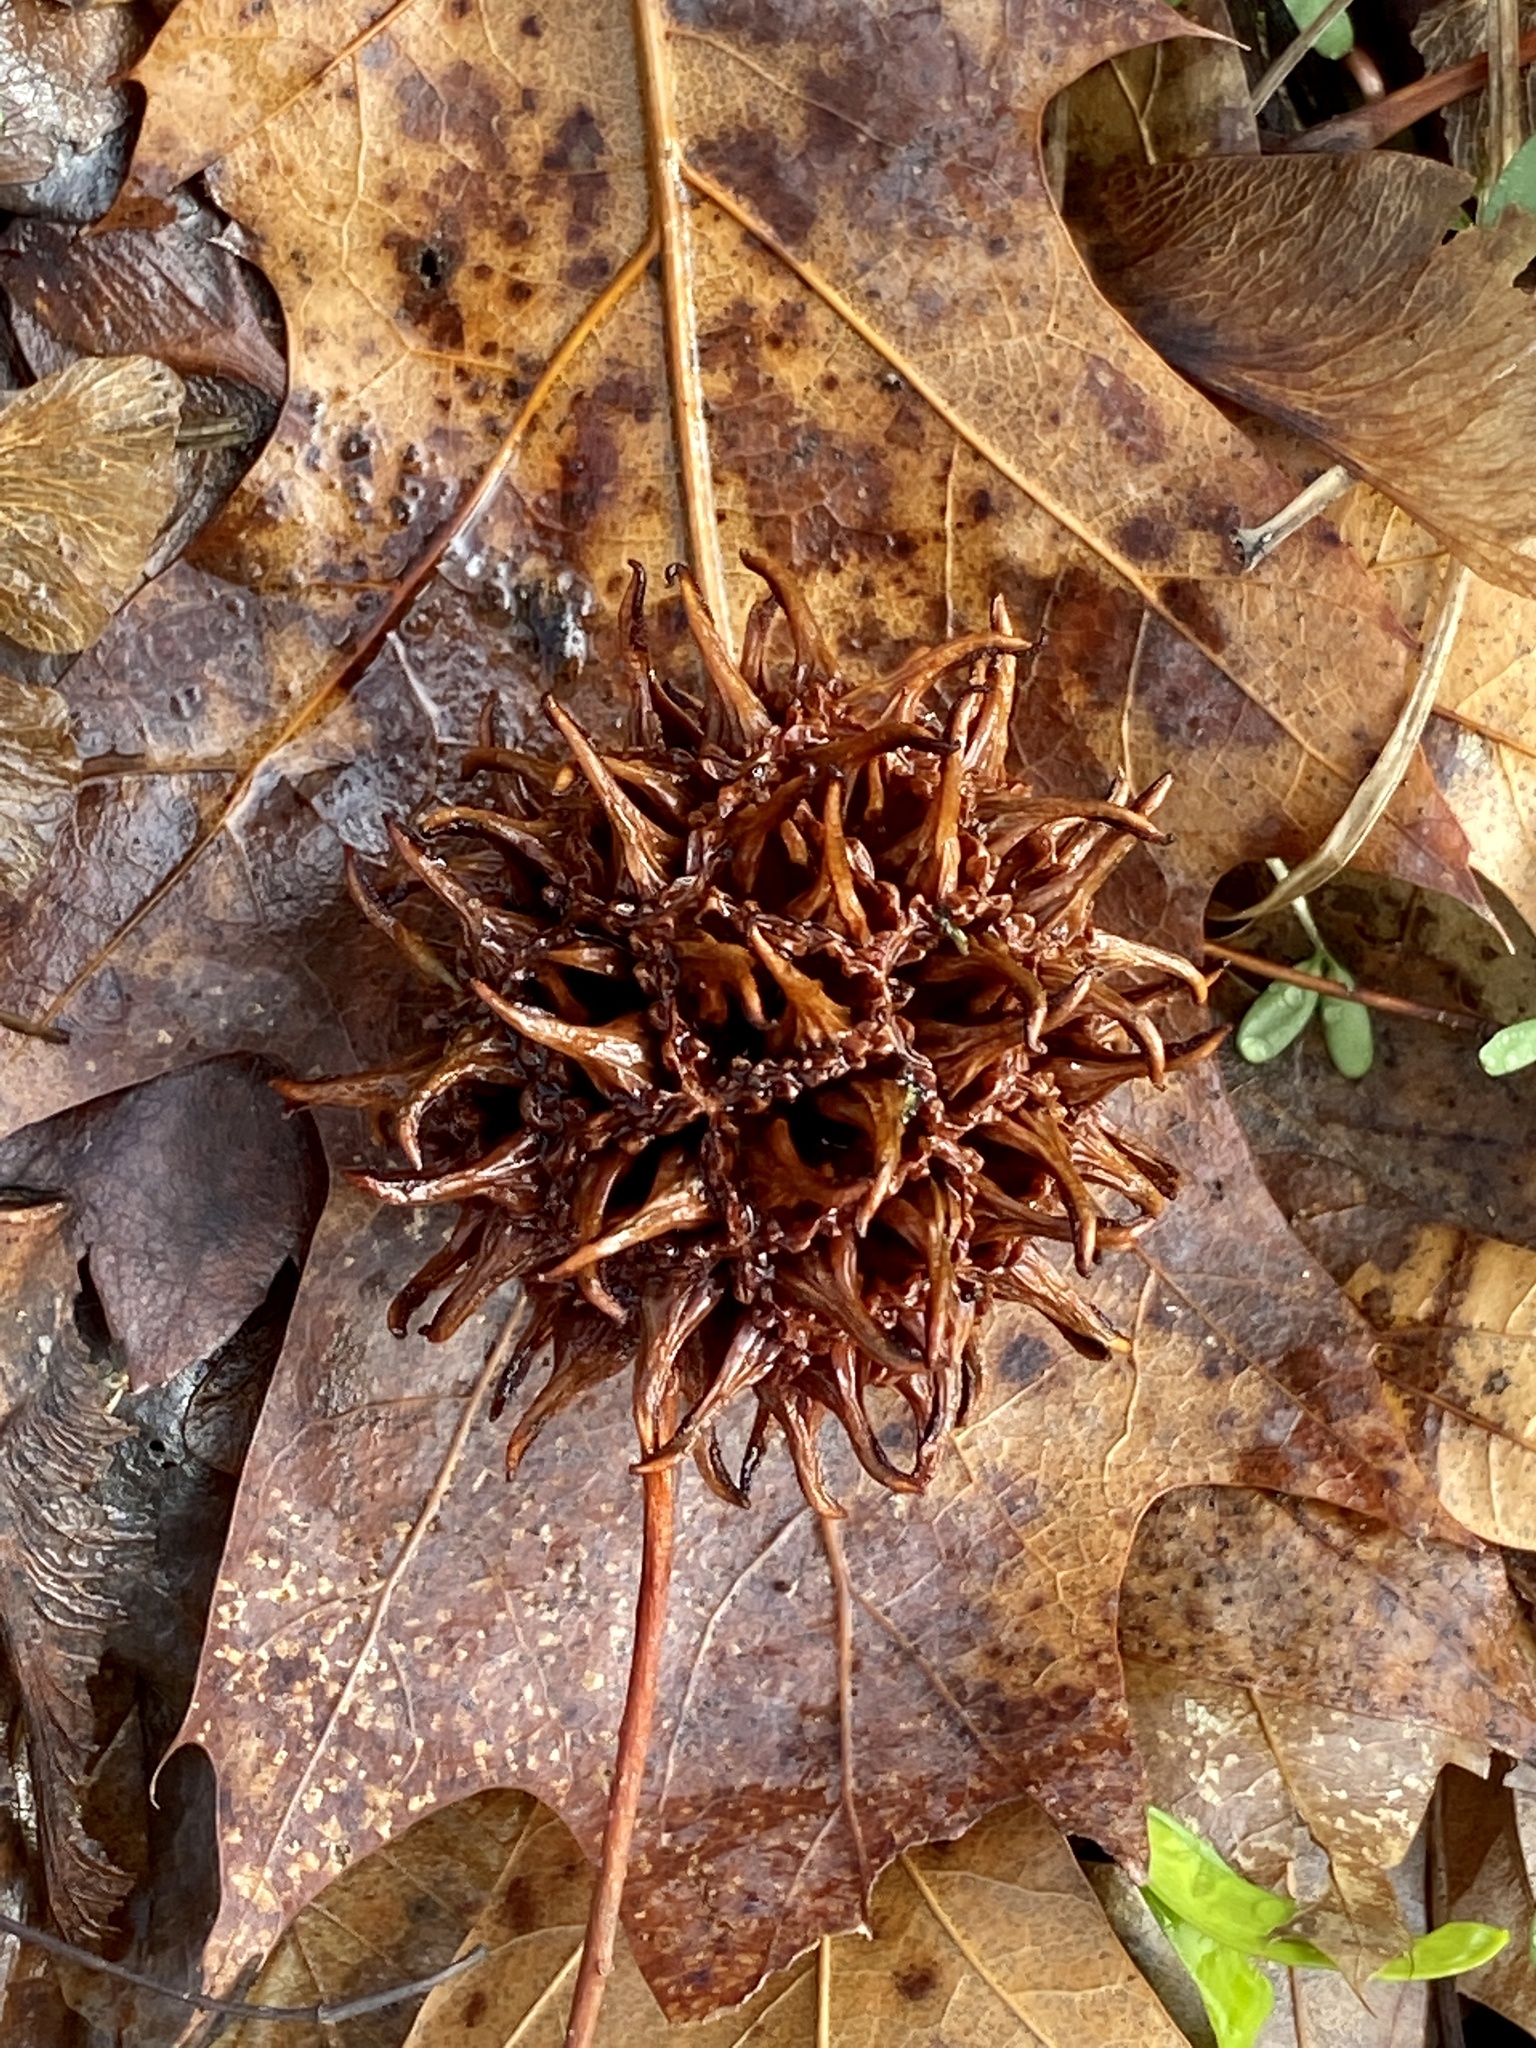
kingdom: Plantae
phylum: Tracheophyta
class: Magnoliopsida
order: Saxifragales
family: Altingiaceae
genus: Liquidambar
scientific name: Liquidambar styraciflua
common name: Sweet gum
